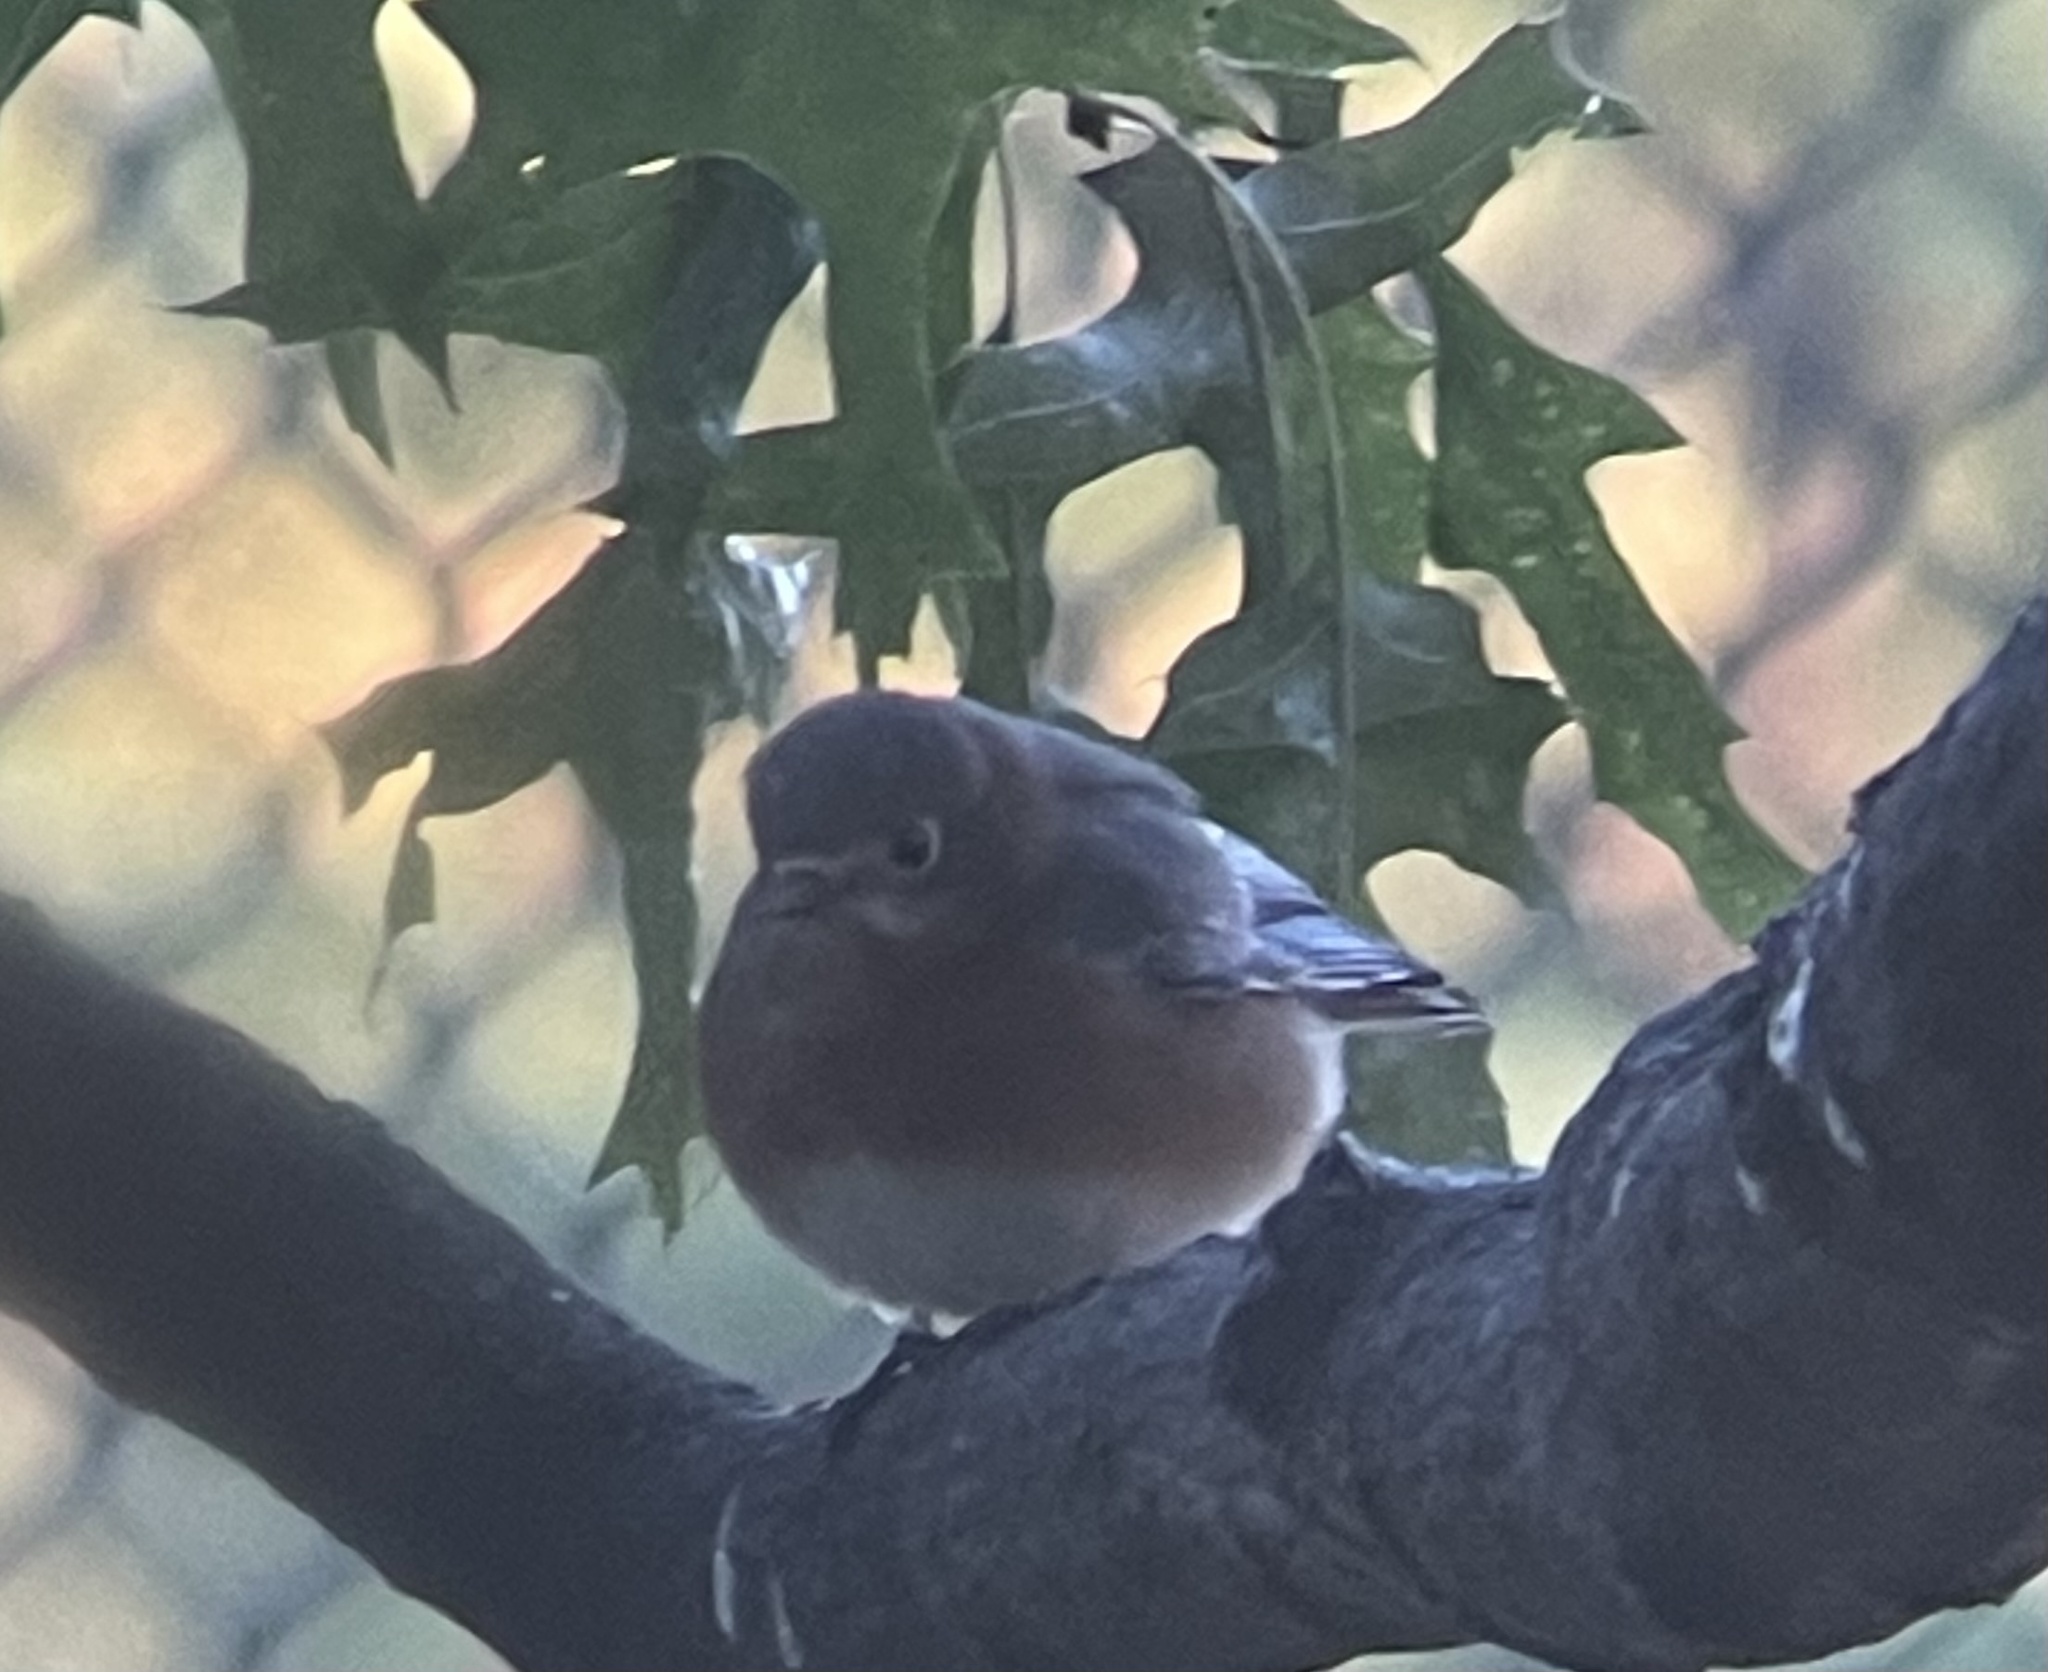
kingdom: Animalia
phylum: Chordata
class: Aves
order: Passeriformes
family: Turdidae
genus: Sialia
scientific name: Sialia sialis
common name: Eastern bluebird
